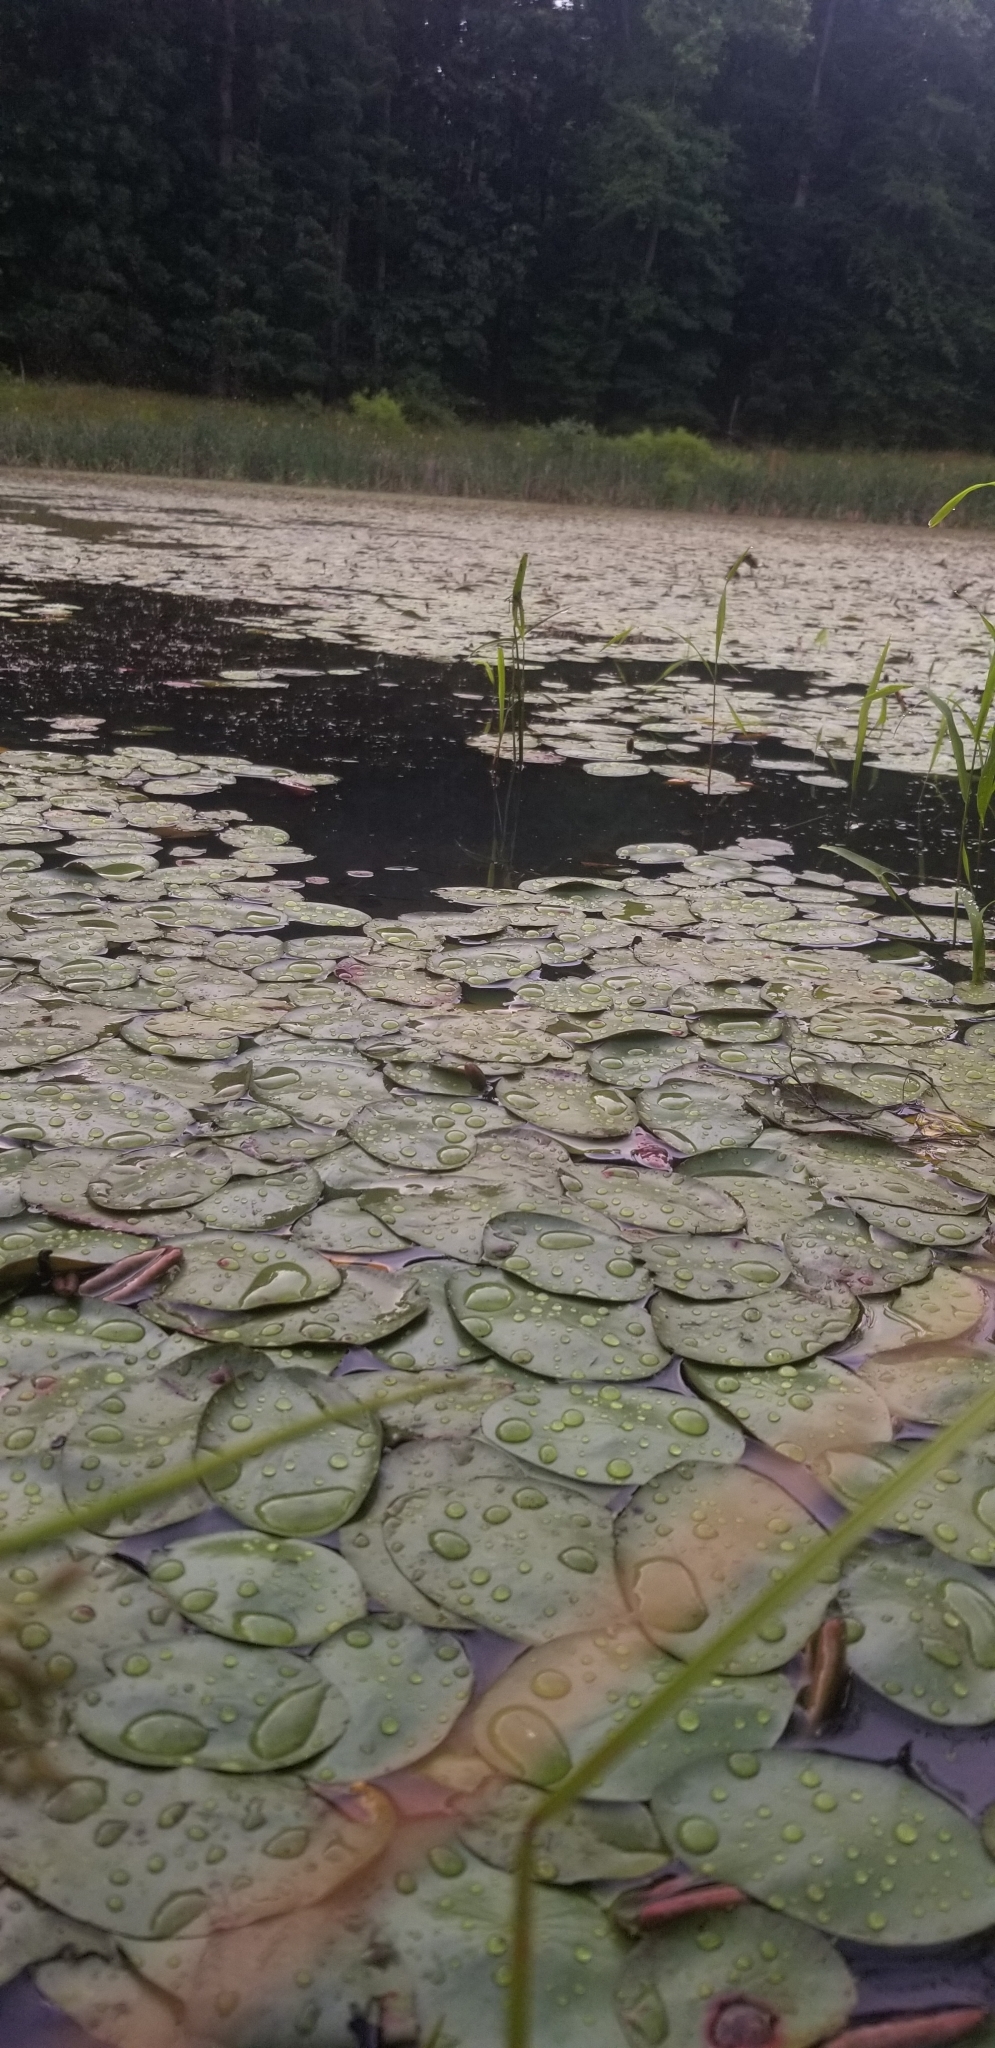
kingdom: Plantae
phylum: Tracheophyta
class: Magnoliopsida
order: Nymphaeales
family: Cabombaceae
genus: Brasenia
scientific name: Brasenia schreberi
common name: Water-shield
